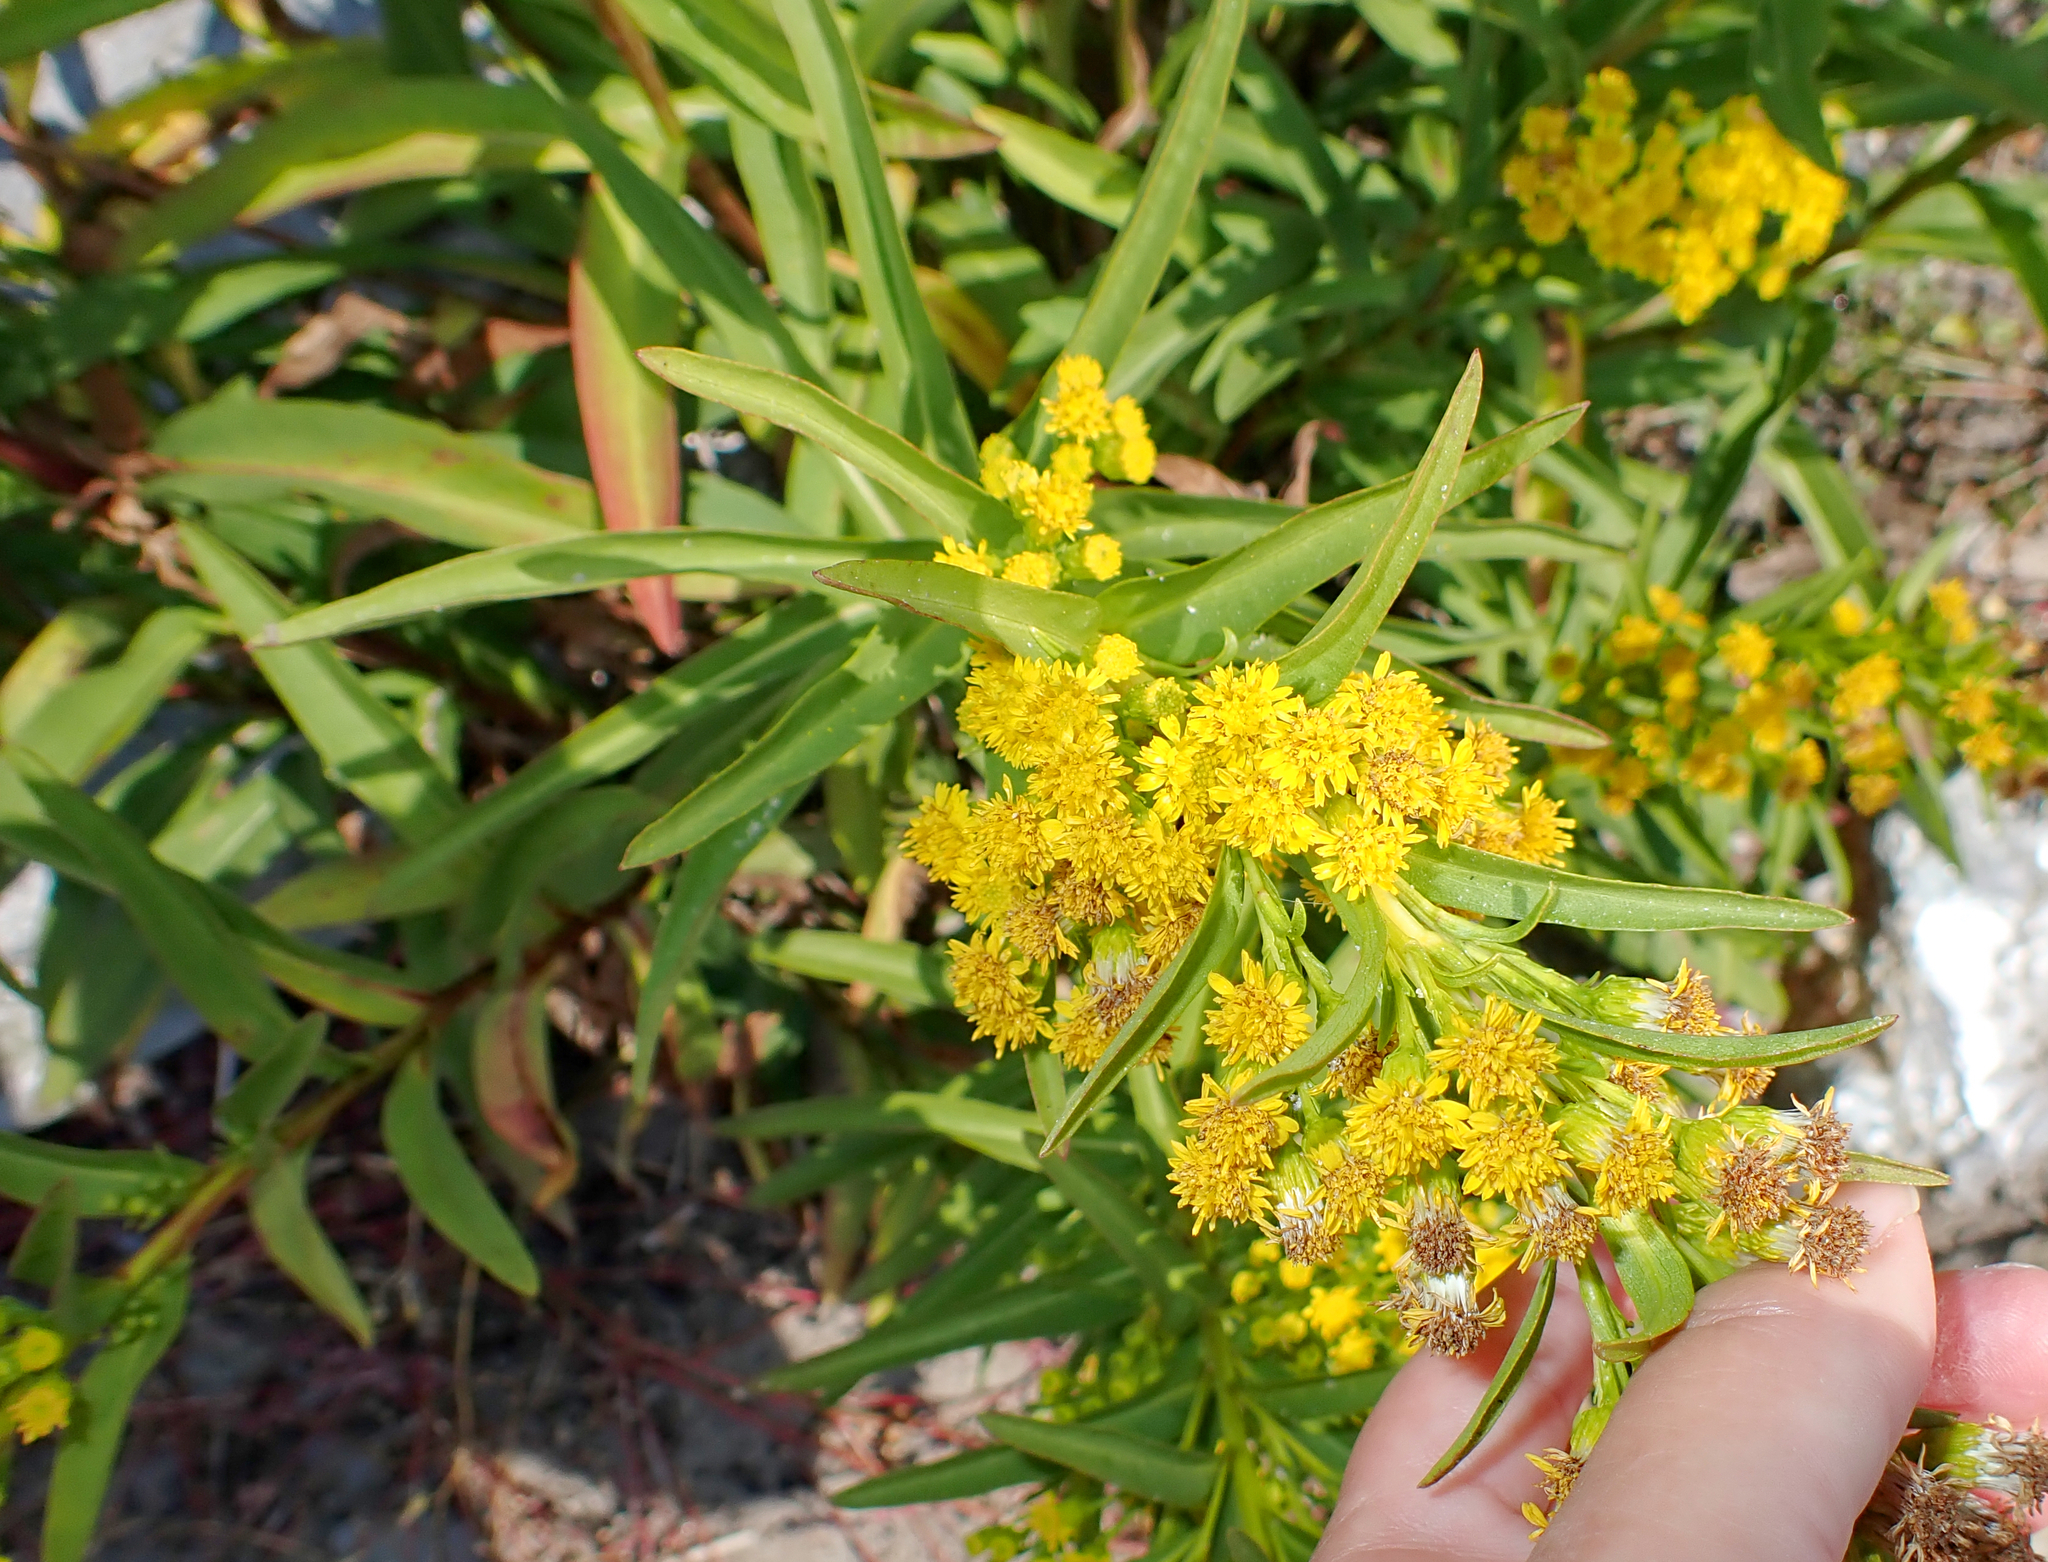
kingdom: Plantae
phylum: Tracheophyta
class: Magnoliopsida
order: Asterales
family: Asteraceae
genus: Solidago
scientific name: Solidago sempervirens
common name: Salt-marsh goldenrod
